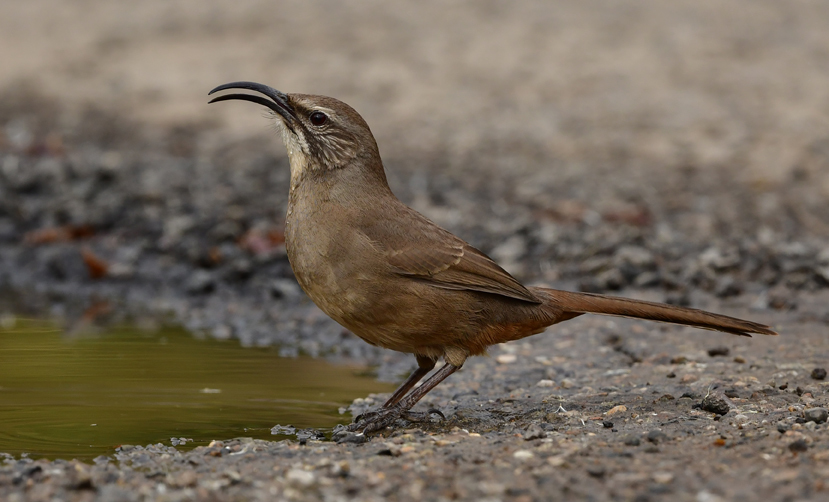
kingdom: Animalia
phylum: Chordata
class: Aves
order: Passeriformes
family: Mimidae
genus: Toxostoma
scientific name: Toxostoma redivivum
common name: California thrasher
